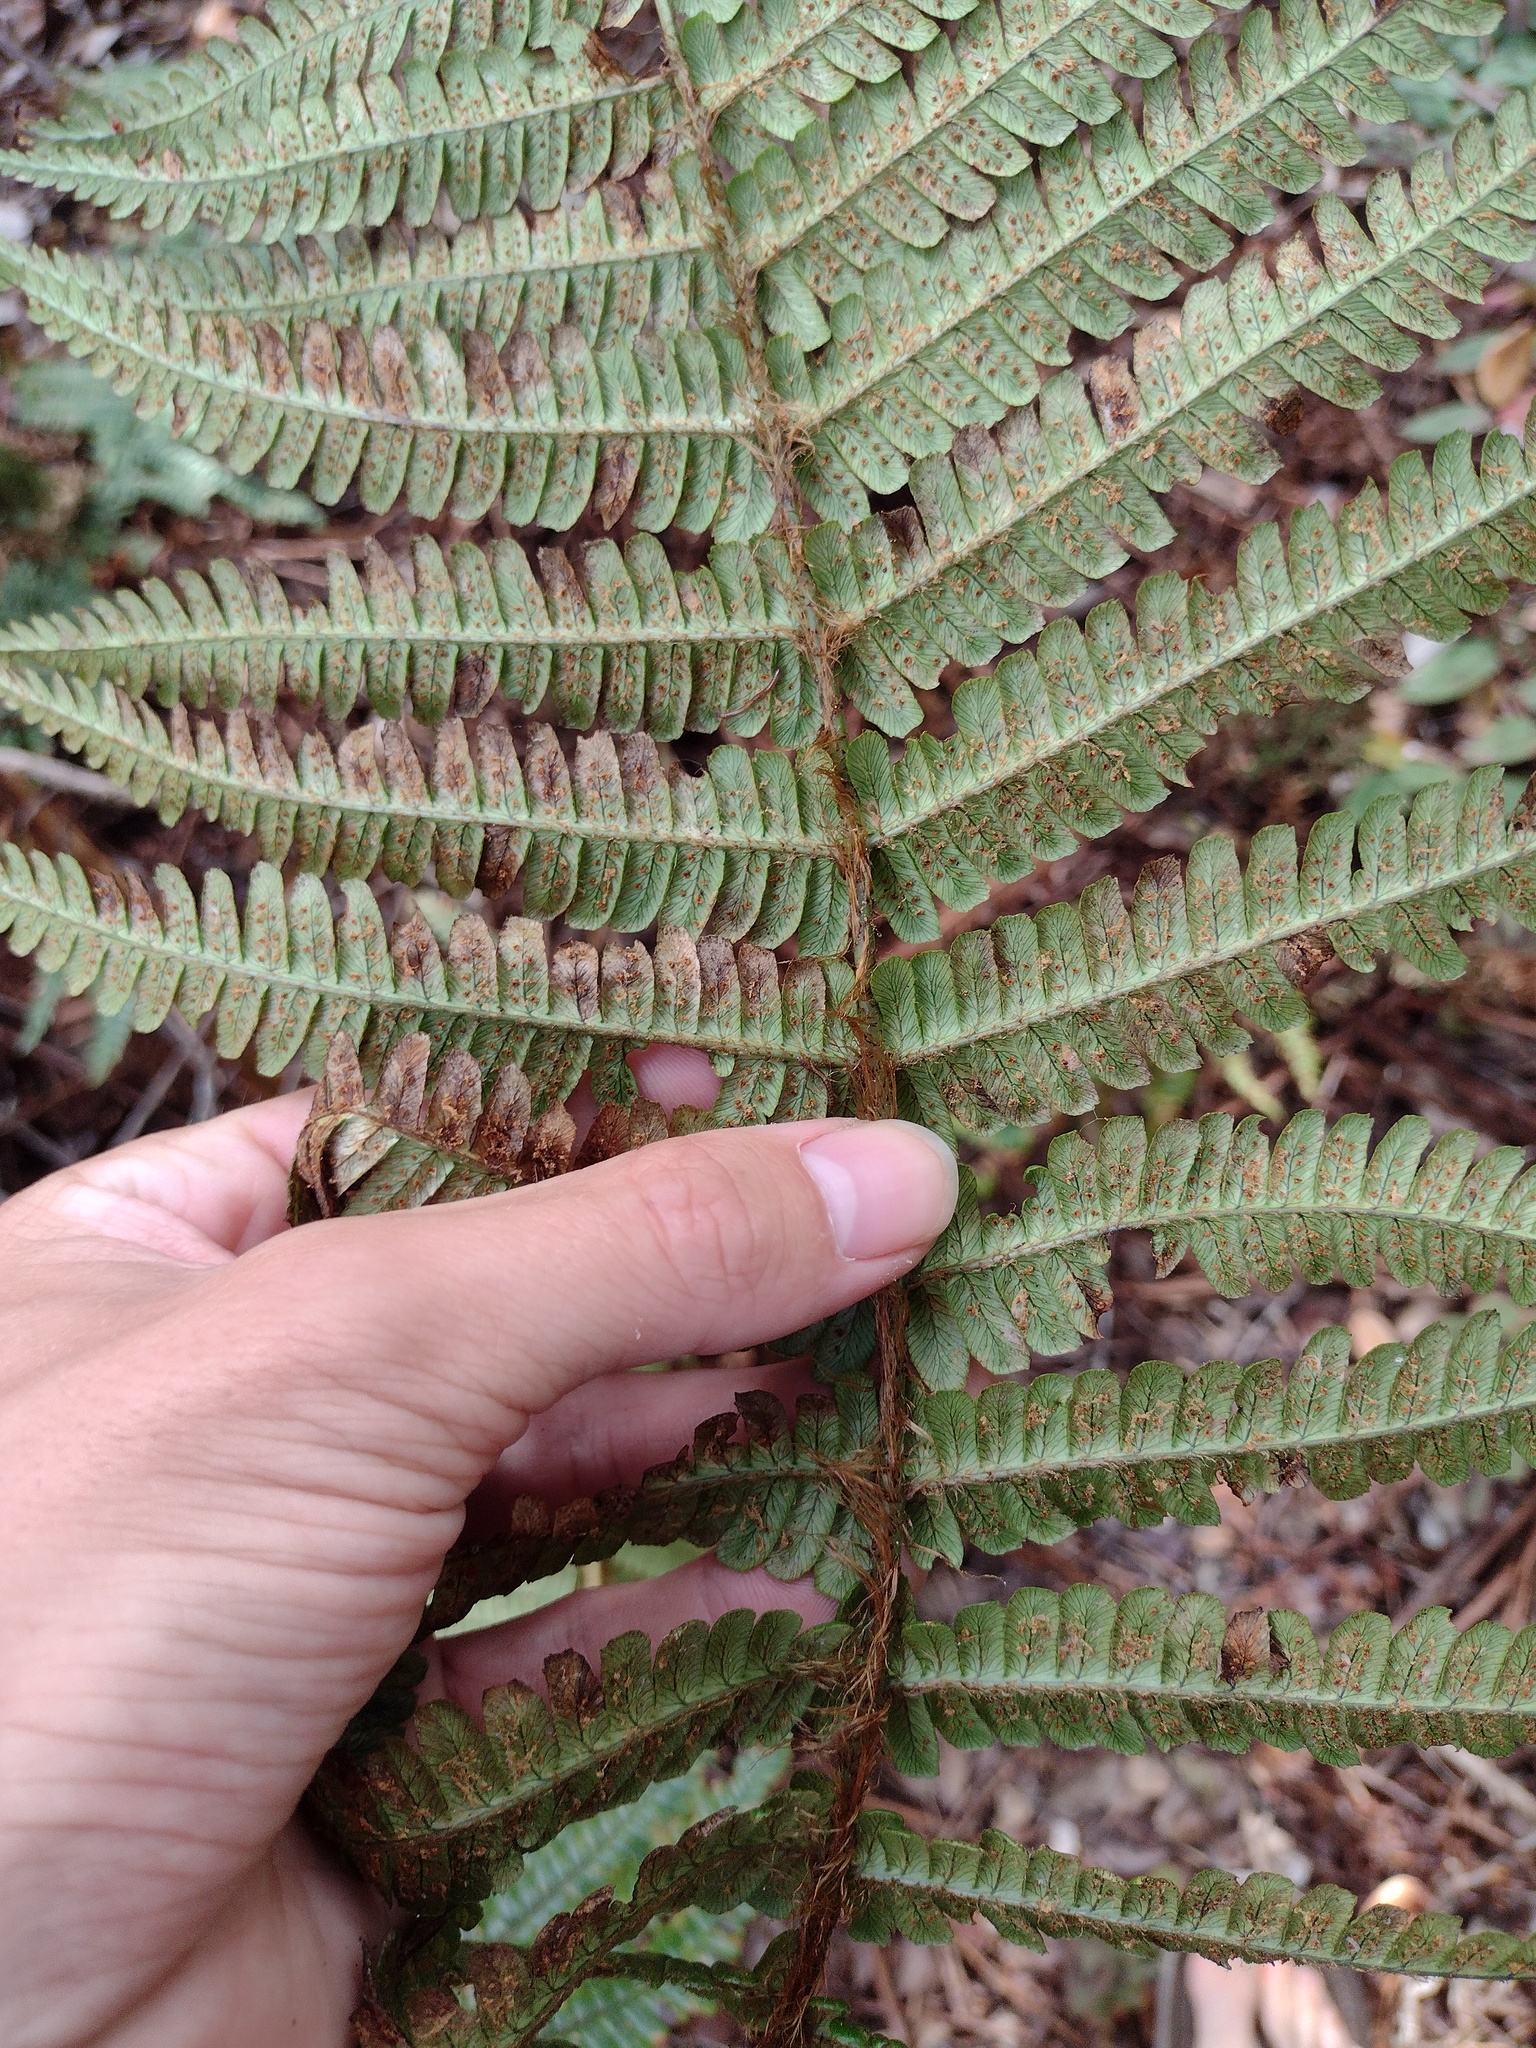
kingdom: Plantae
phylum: Tracheophyta
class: Polypodiopsida
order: Polypodiales
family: Dryopteridaceae
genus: Dryopteris
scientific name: Dryopteris wallichiana
